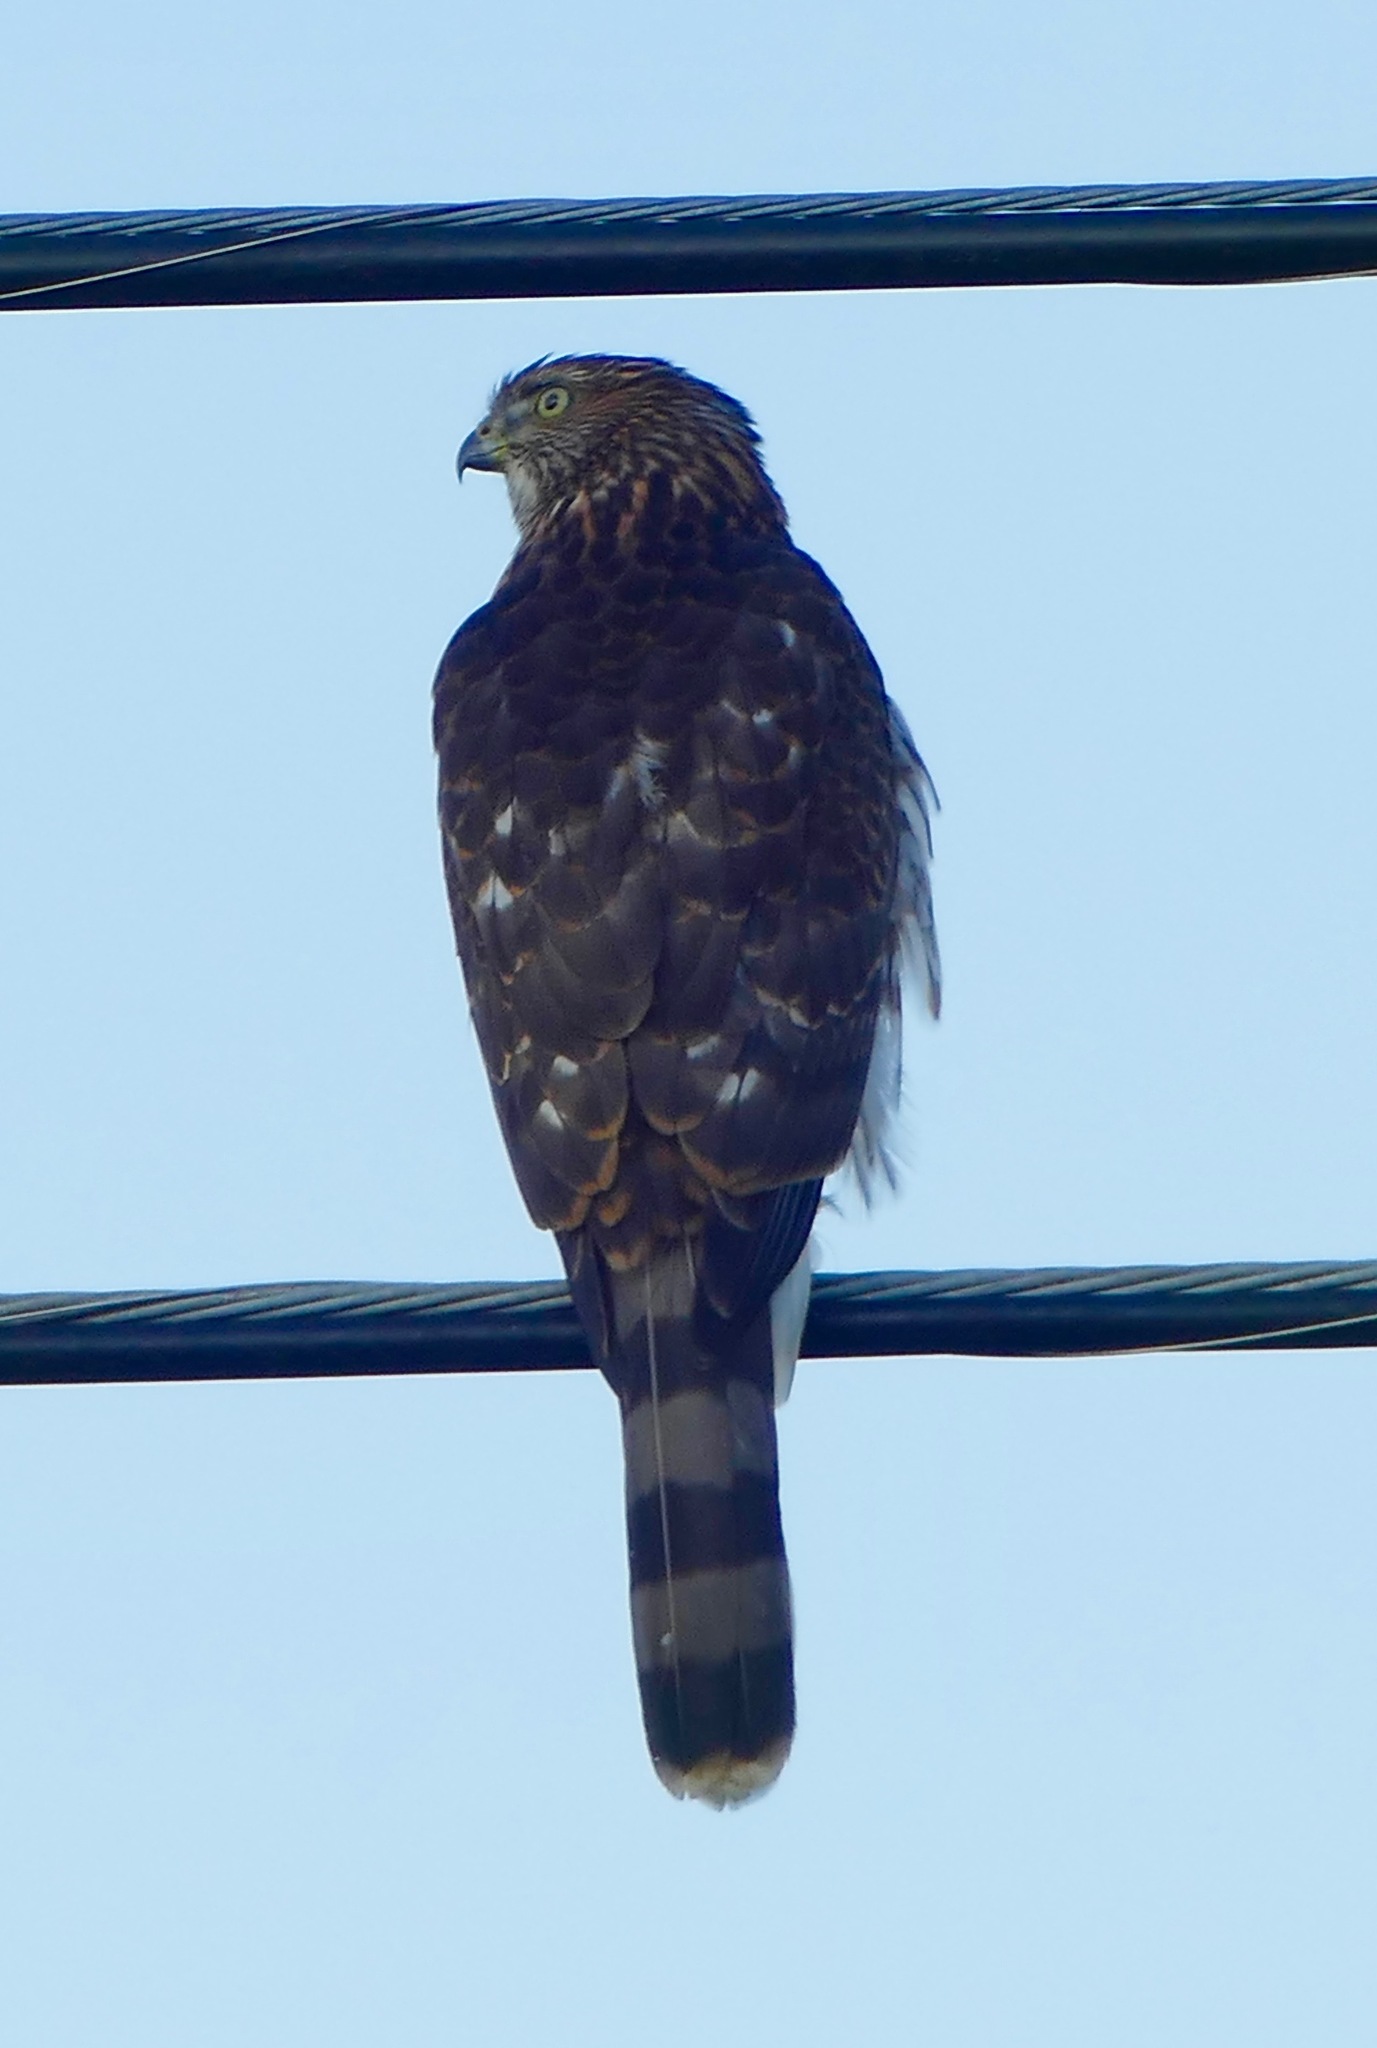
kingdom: Animalia
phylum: Chordata
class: Aves
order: Accipitriformes
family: Accipitridae
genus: Accipiter
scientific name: Accipiter cooperii
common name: Cooper's hawk
